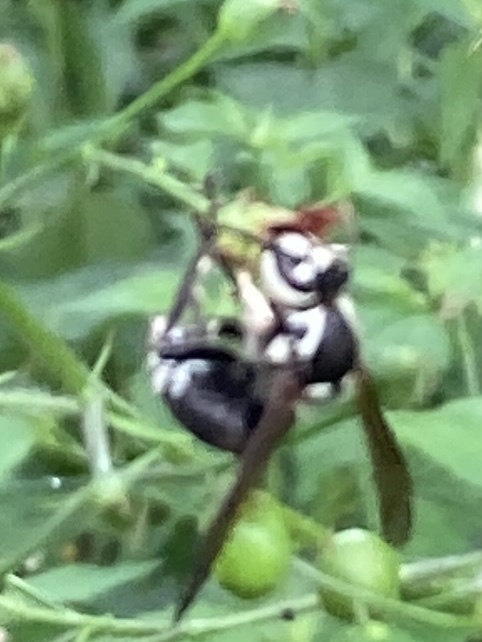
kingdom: Animalia
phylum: Arthropoda
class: Insecta
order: Hymenoptera
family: Vespidae
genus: Dolichovespula
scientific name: Dolichovespula maculata
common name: Bald-faced hornet
